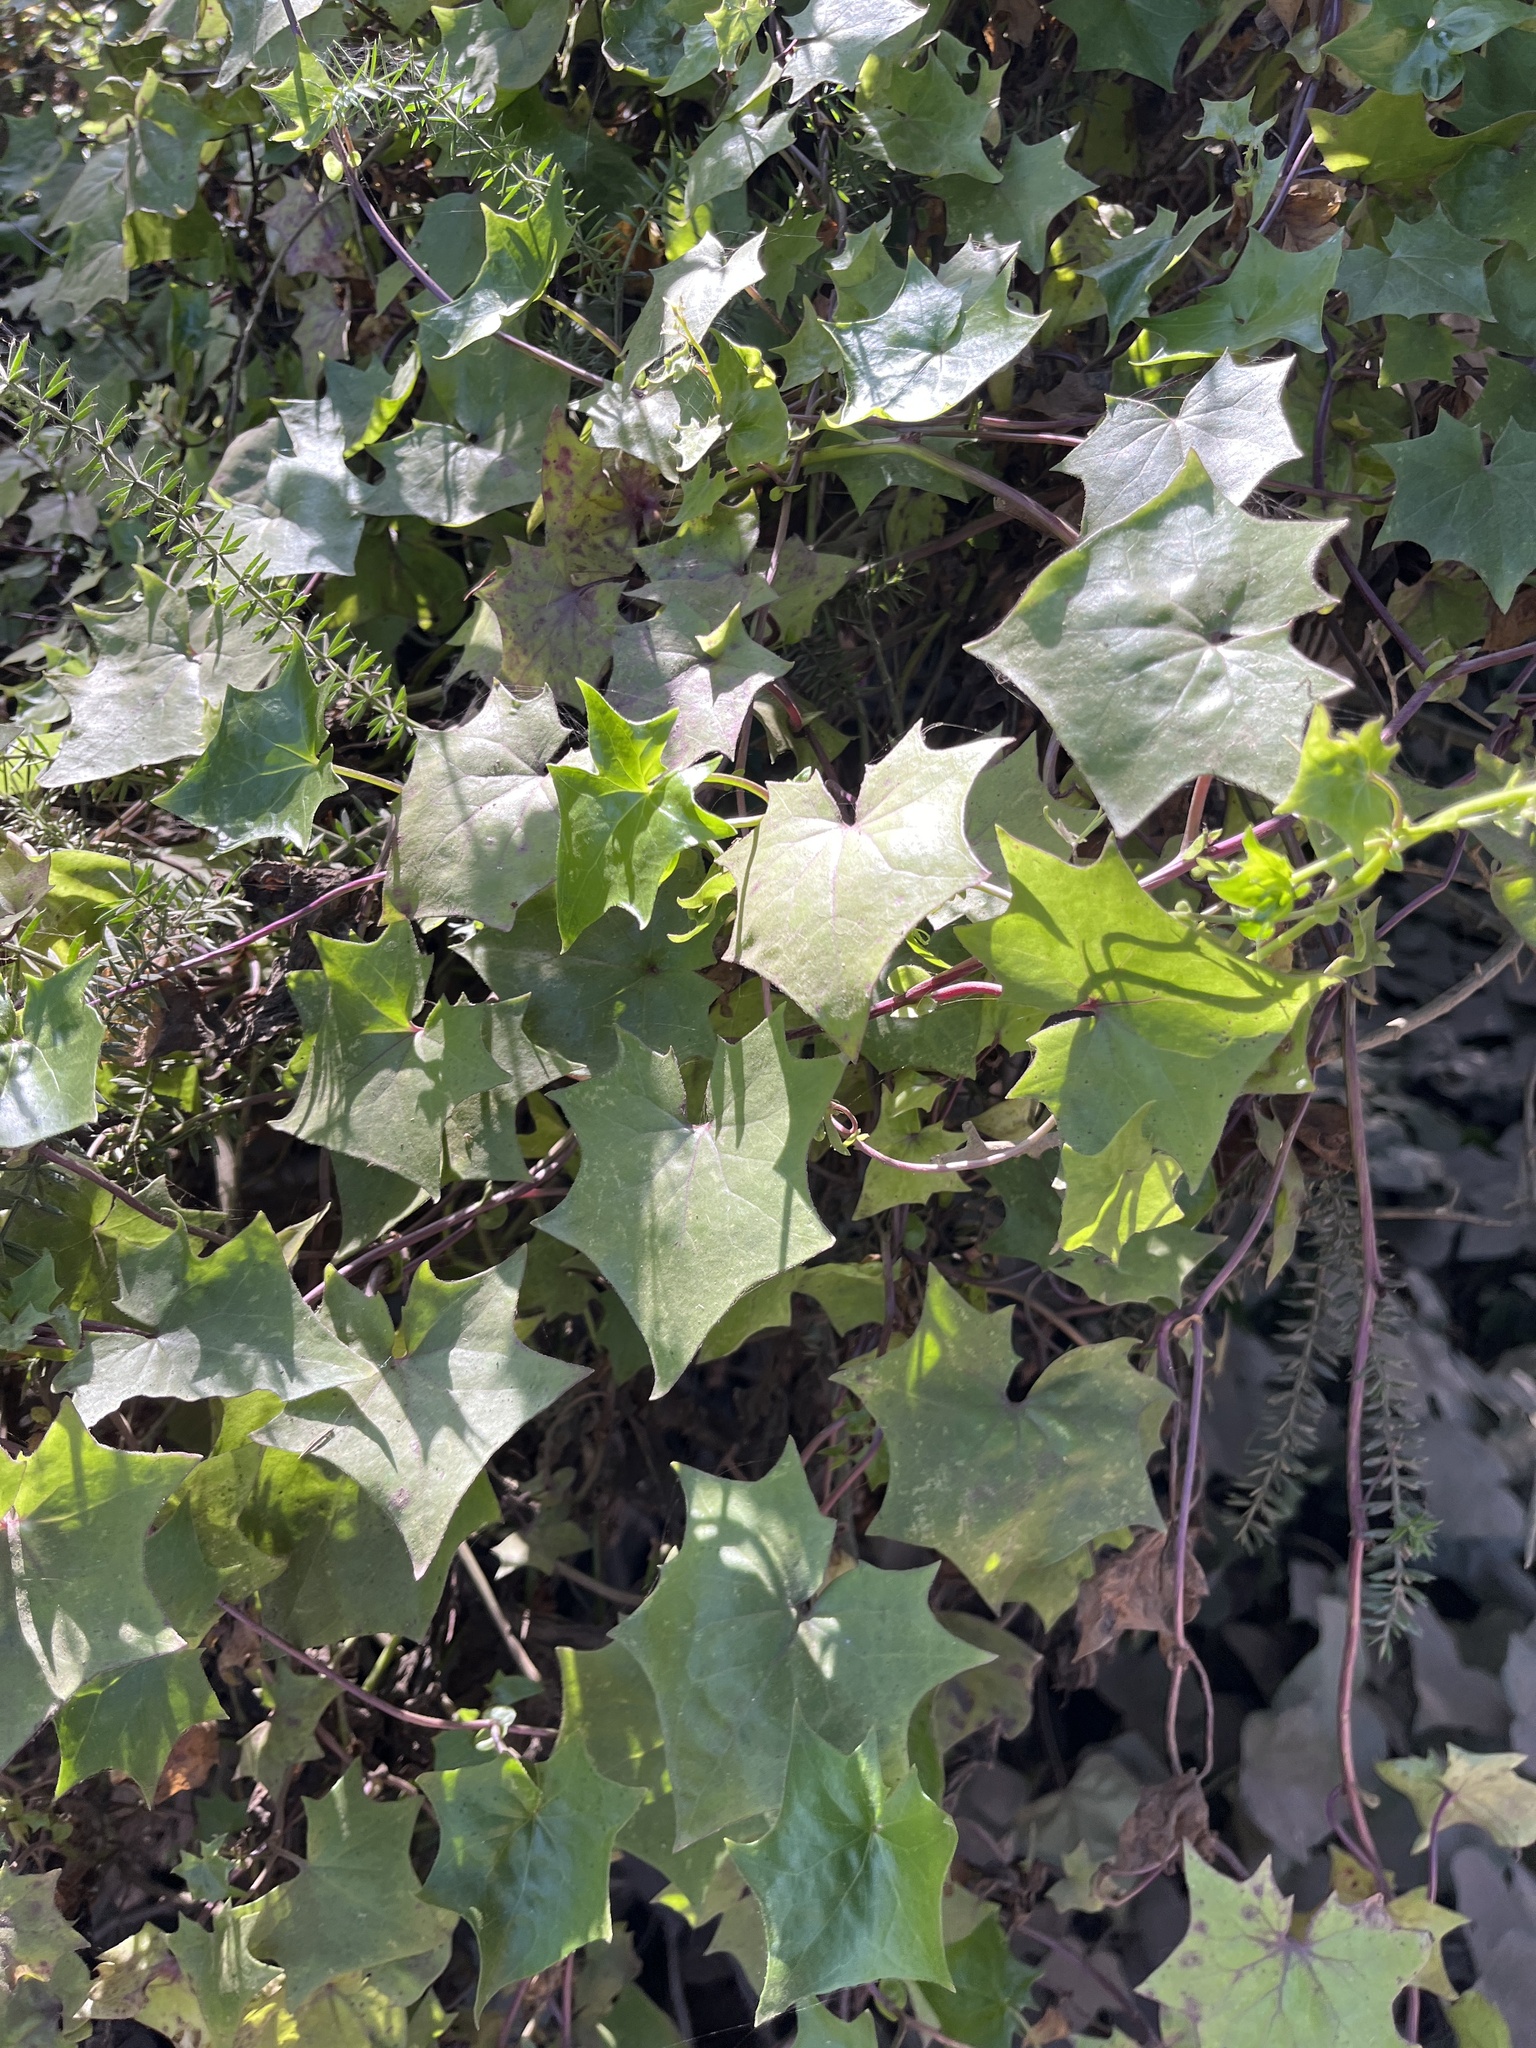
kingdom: Plantae
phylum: Tracheophyta
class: Magnoliopsida
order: Asterales
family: Asteraceae
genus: Delairea
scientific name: Delairea odorata
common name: Cape-ivy
